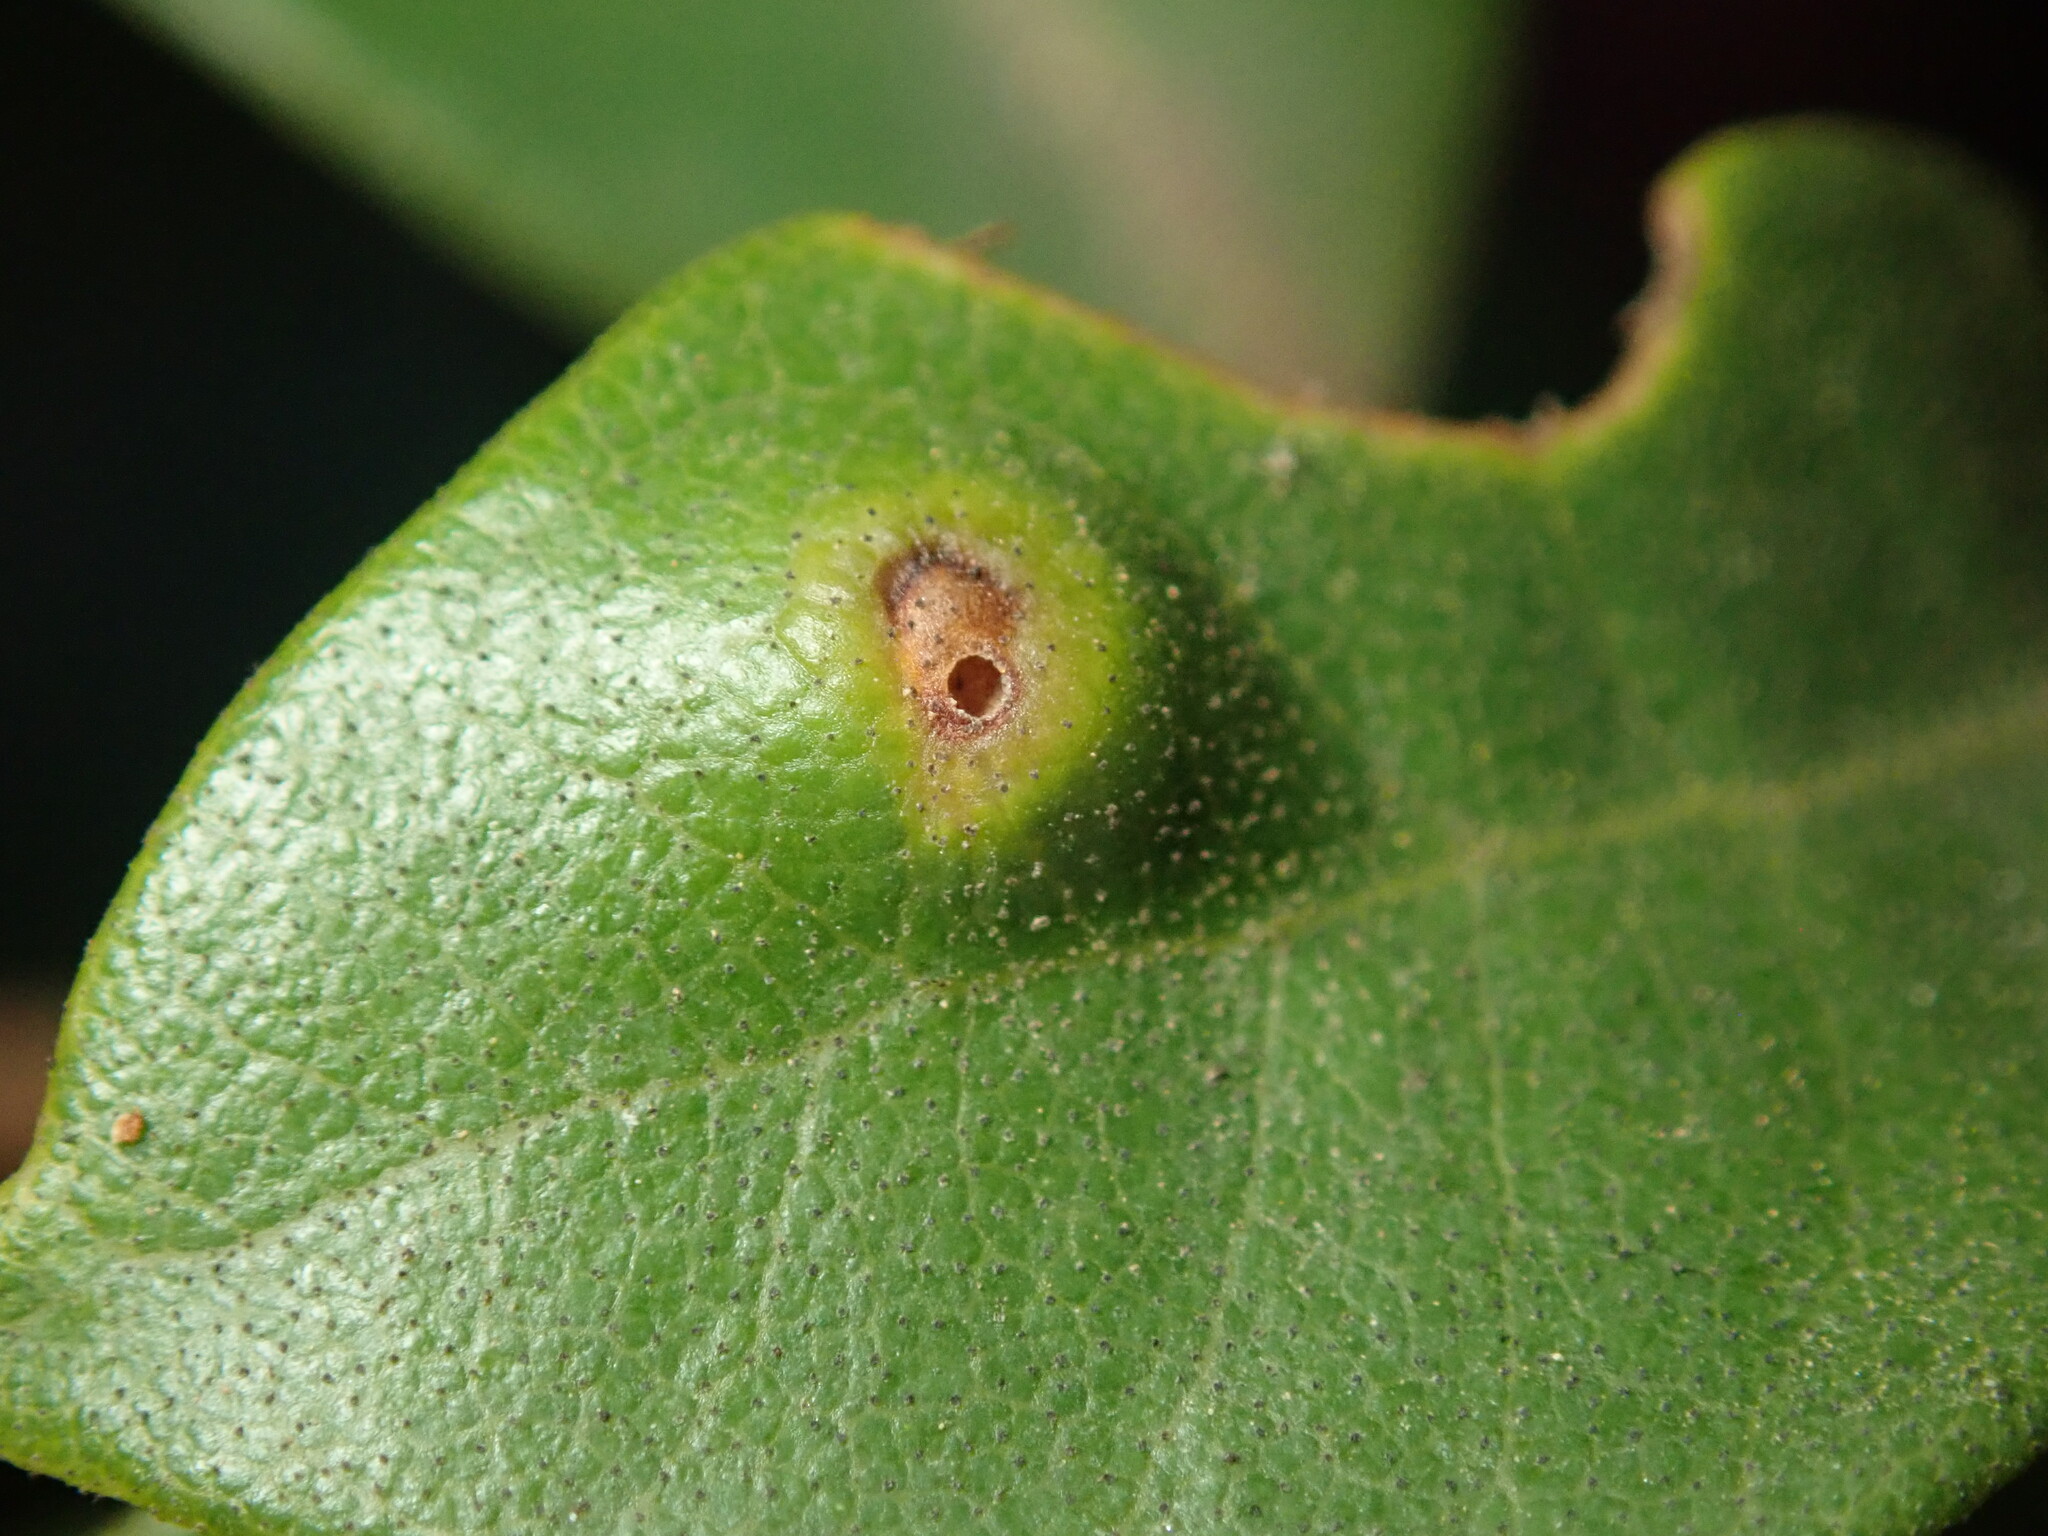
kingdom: Animalia
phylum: Arthropoda
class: Insecta
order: Hymenoptera
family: Cynipidae
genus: Dryocosmus
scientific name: Dryocosmus juliae
